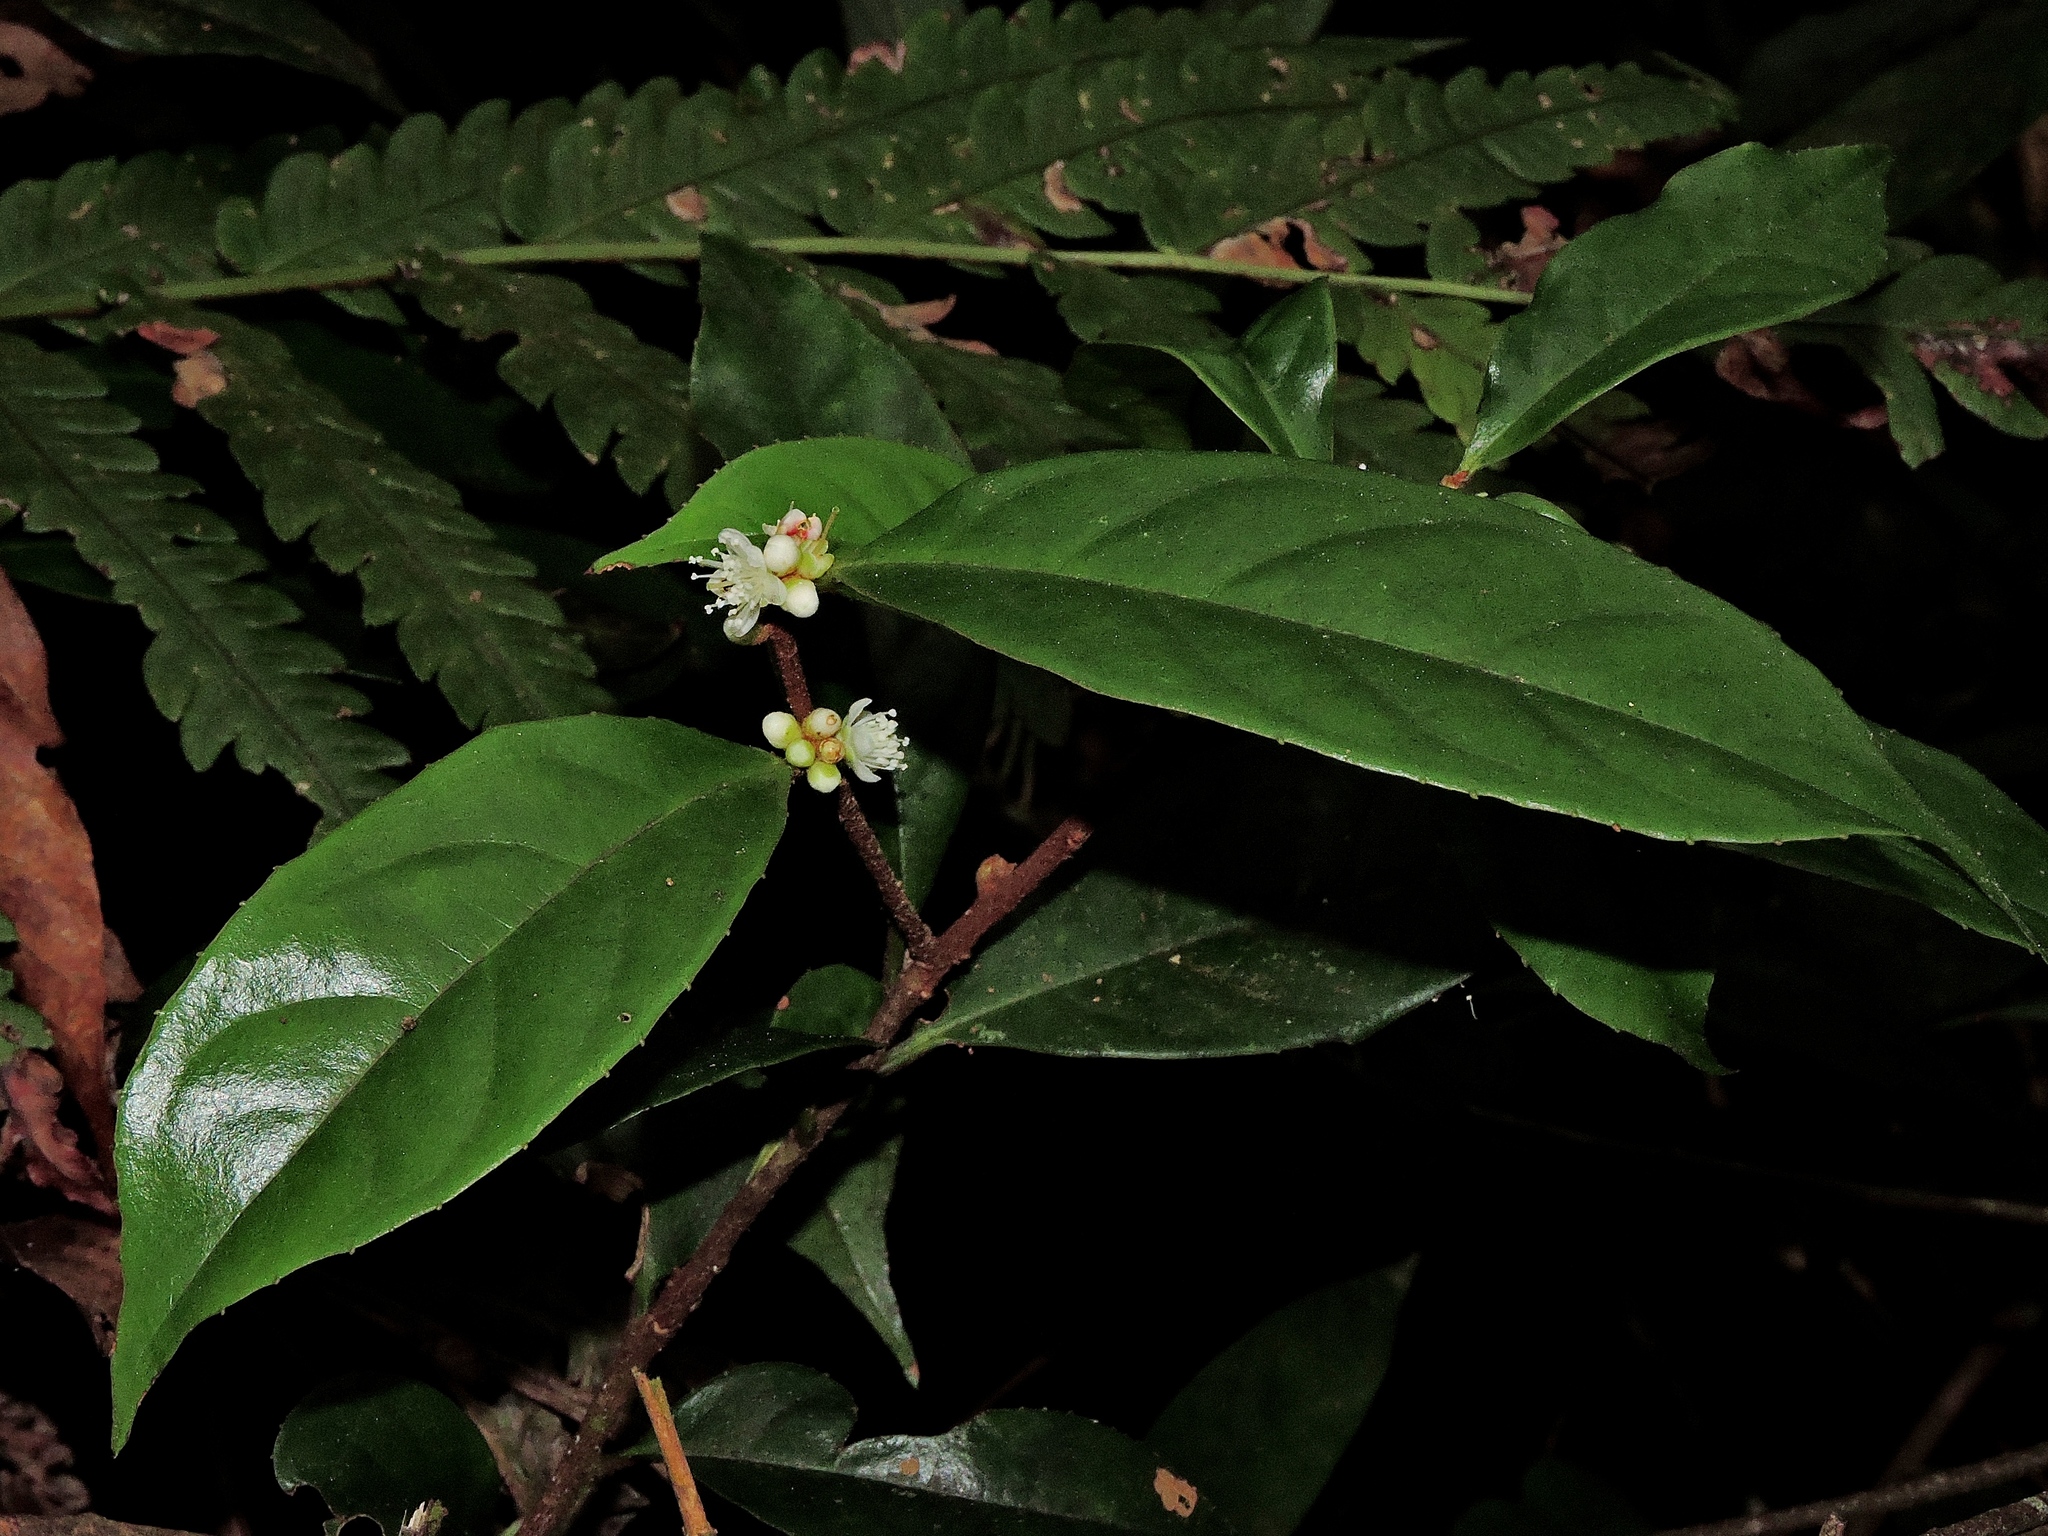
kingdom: Plantae
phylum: Tracheophyta
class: Magnoliopsida
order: Ericales
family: Symplocaceae
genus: Symplocos
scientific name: Symplocos theifolia
